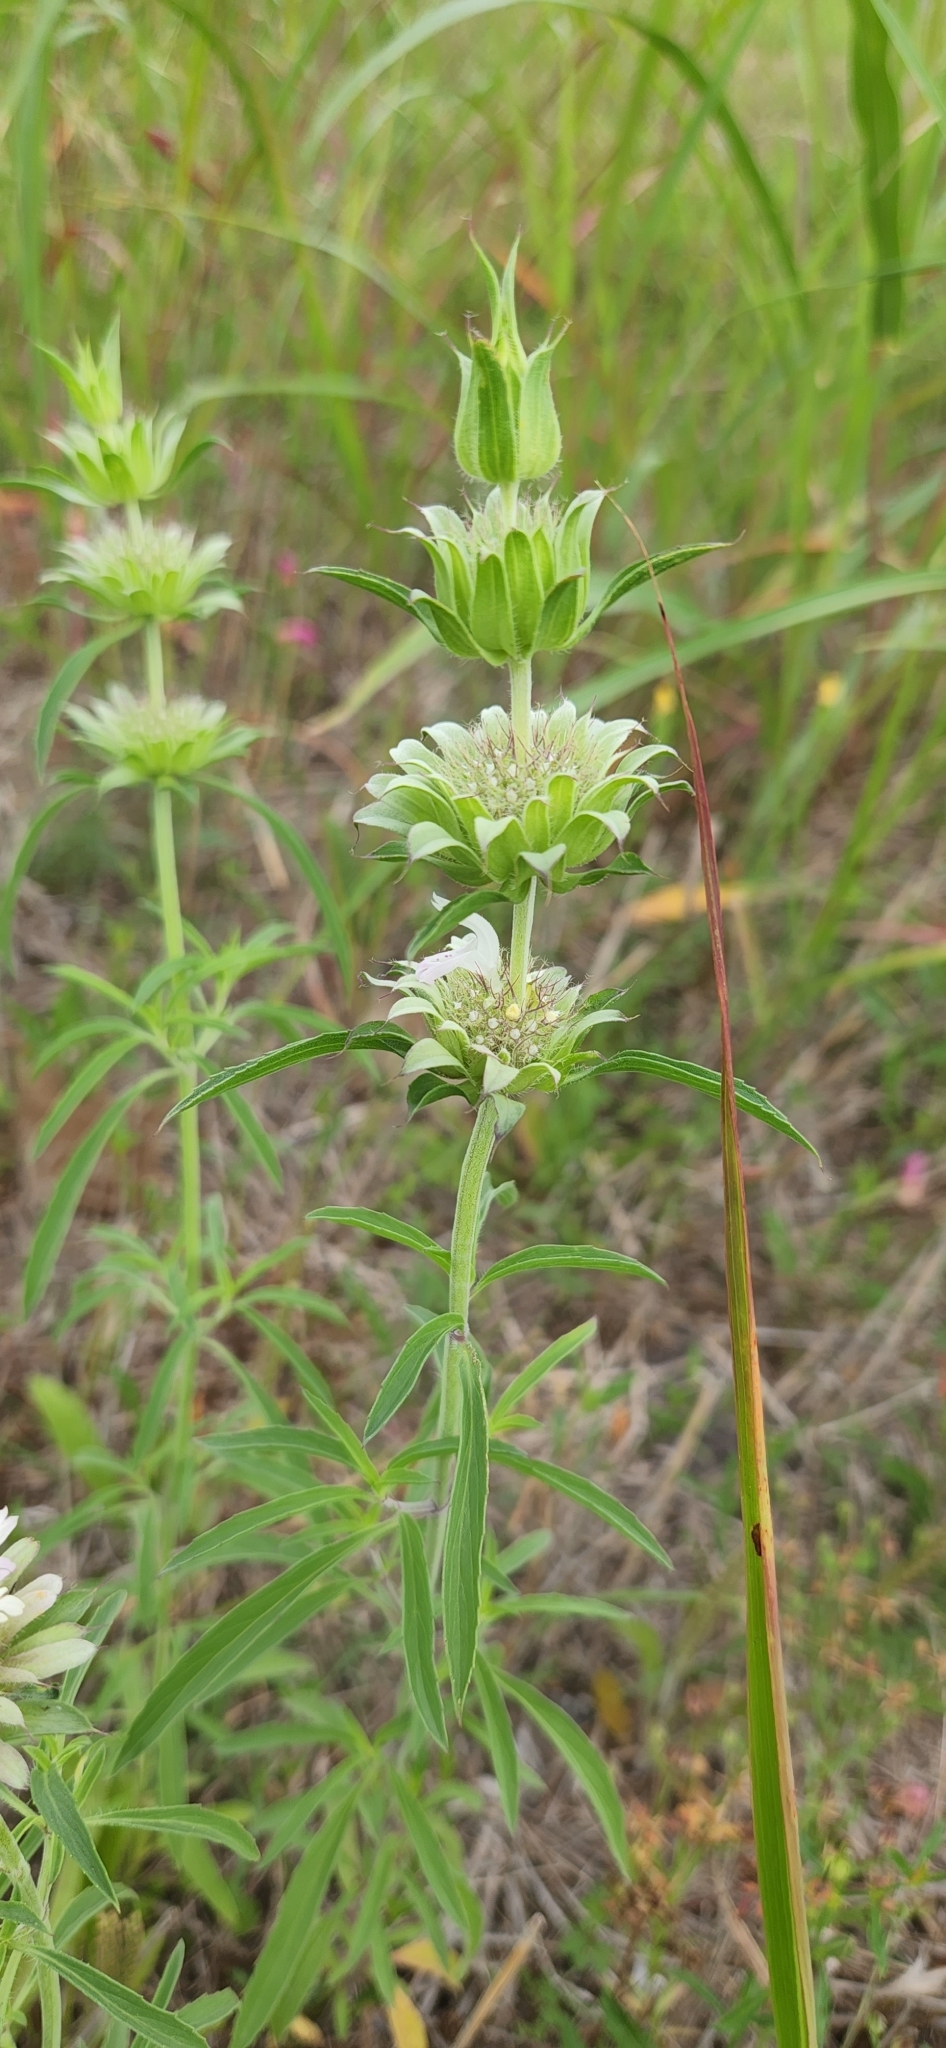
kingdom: Plantae
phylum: Tracheophyta
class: Magnoliopsida
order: Lamiales
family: Lamiaceae
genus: Monarda
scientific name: Monarda citriodora
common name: Lemon beebalm
